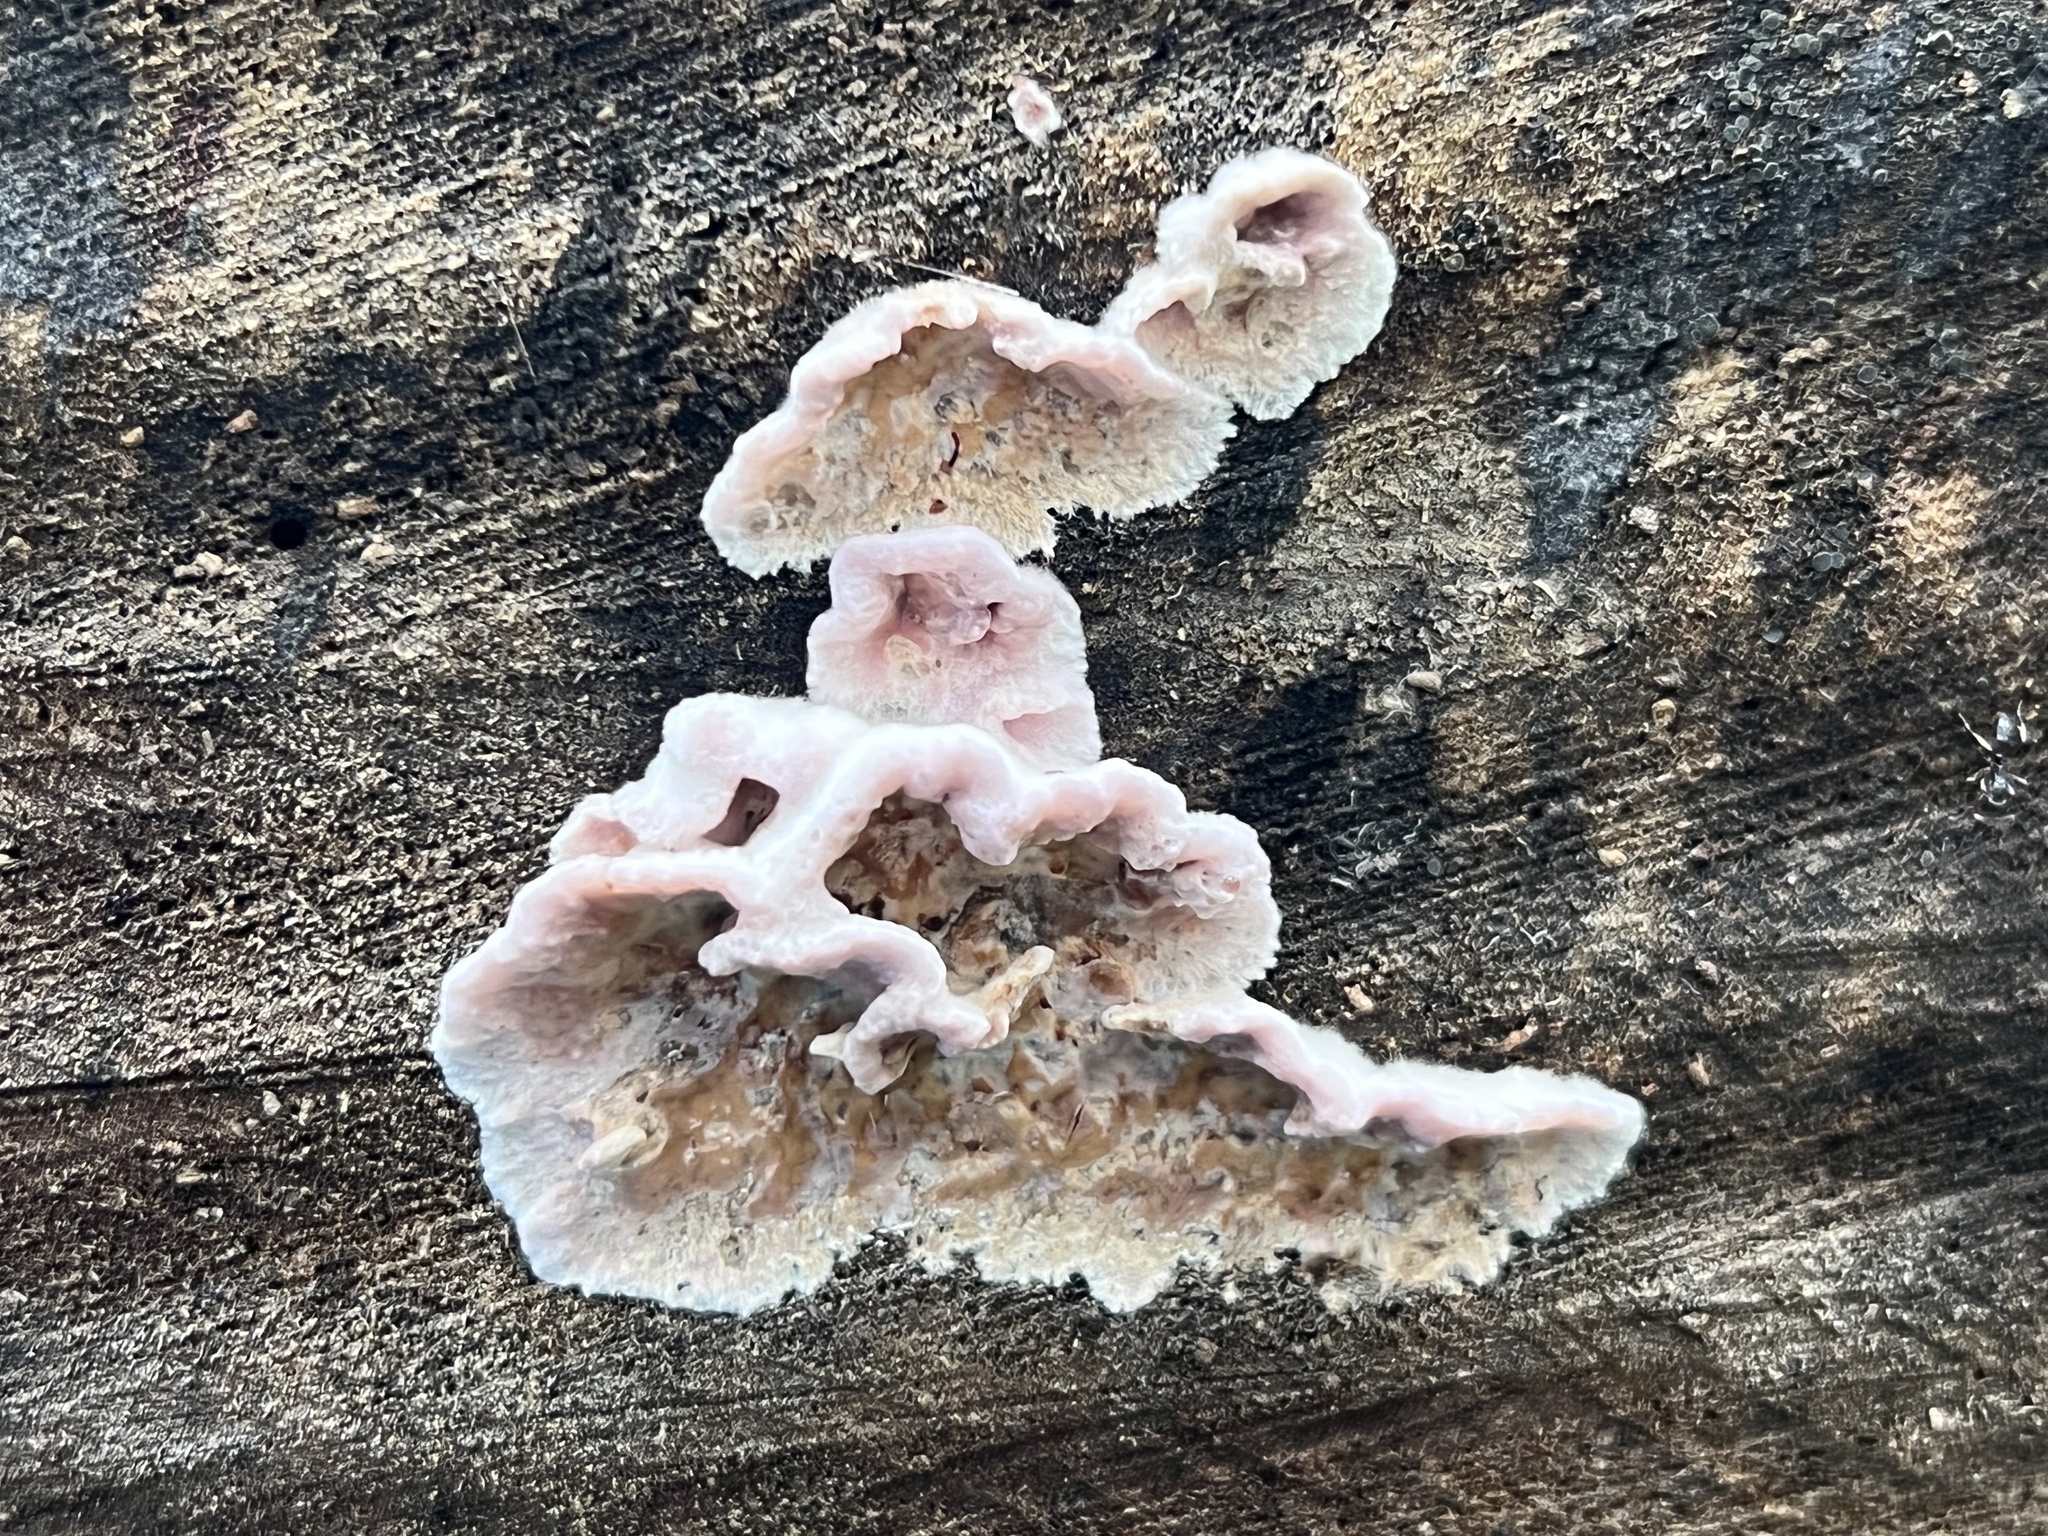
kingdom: Fungi
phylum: Basidiomycota
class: Agaricomycetes
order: Agaricales
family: Cyphellaceae
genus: Chondrostereum
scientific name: Chondrostereum purpureum
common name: Silver leaf disease
